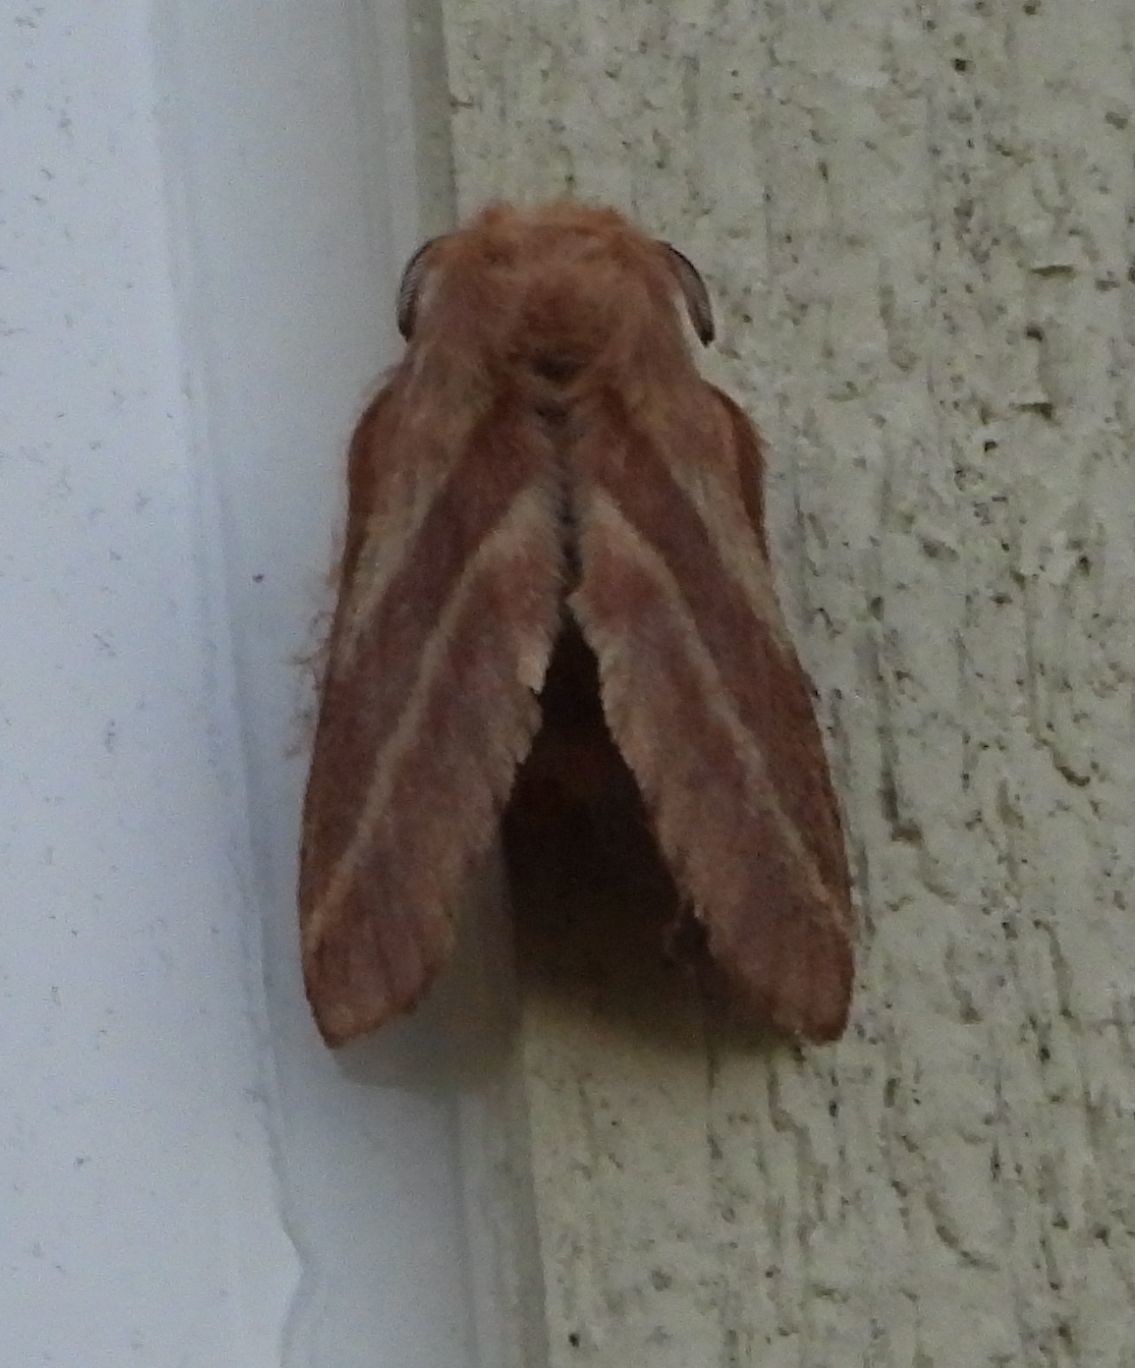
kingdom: Animalia
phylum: Arthropoda
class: Insecta
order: Lepidoptera
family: Lasiocampidae
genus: Malacosoma
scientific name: Malacosoma americana
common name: Eastern tent caterpillar moth
